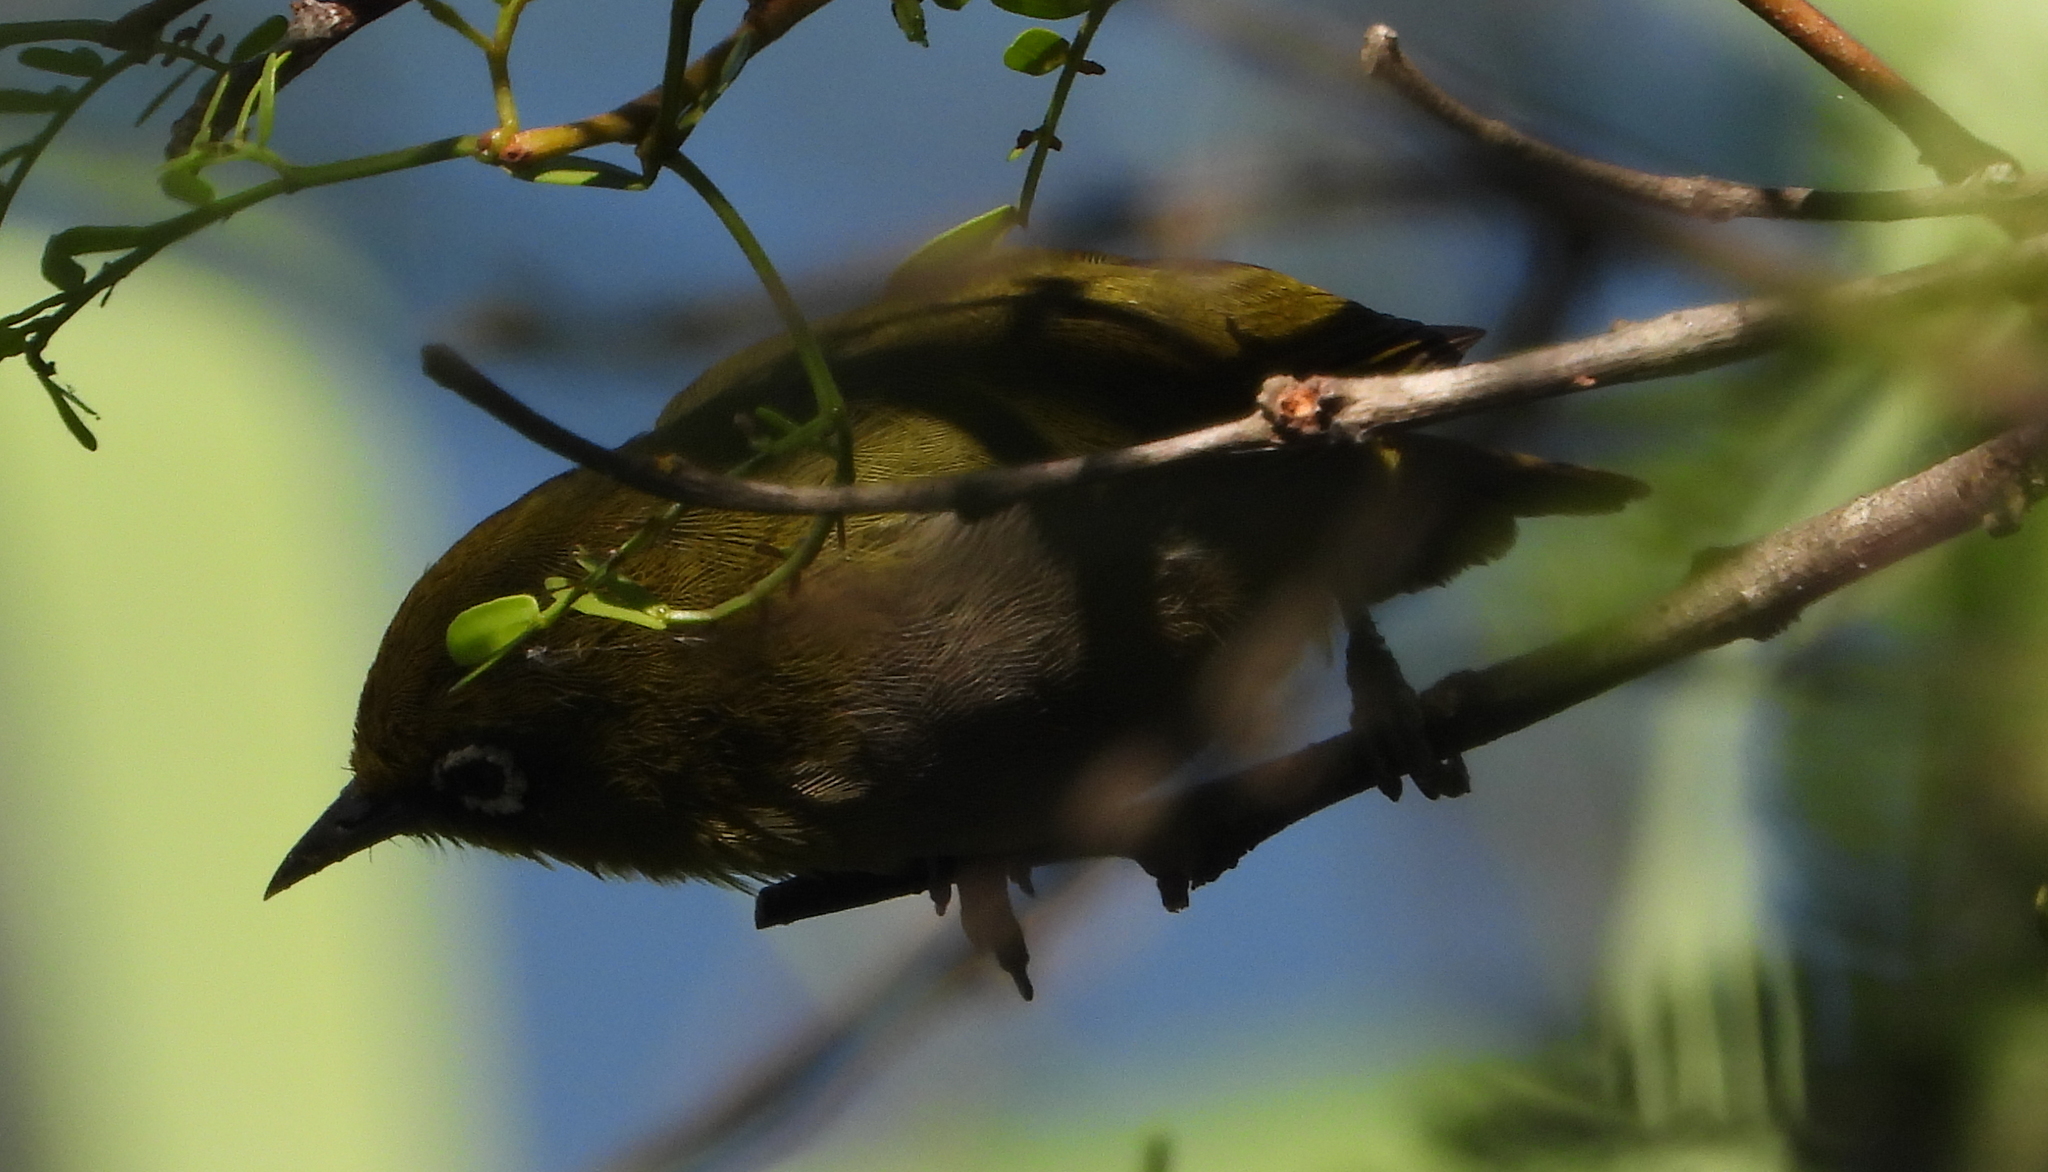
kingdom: Animalia
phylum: Chordata
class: Aves
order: Passeriformes
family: Zosteropidae
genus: Zosterops
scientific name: Zosterops virens
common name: Cape white-eye
